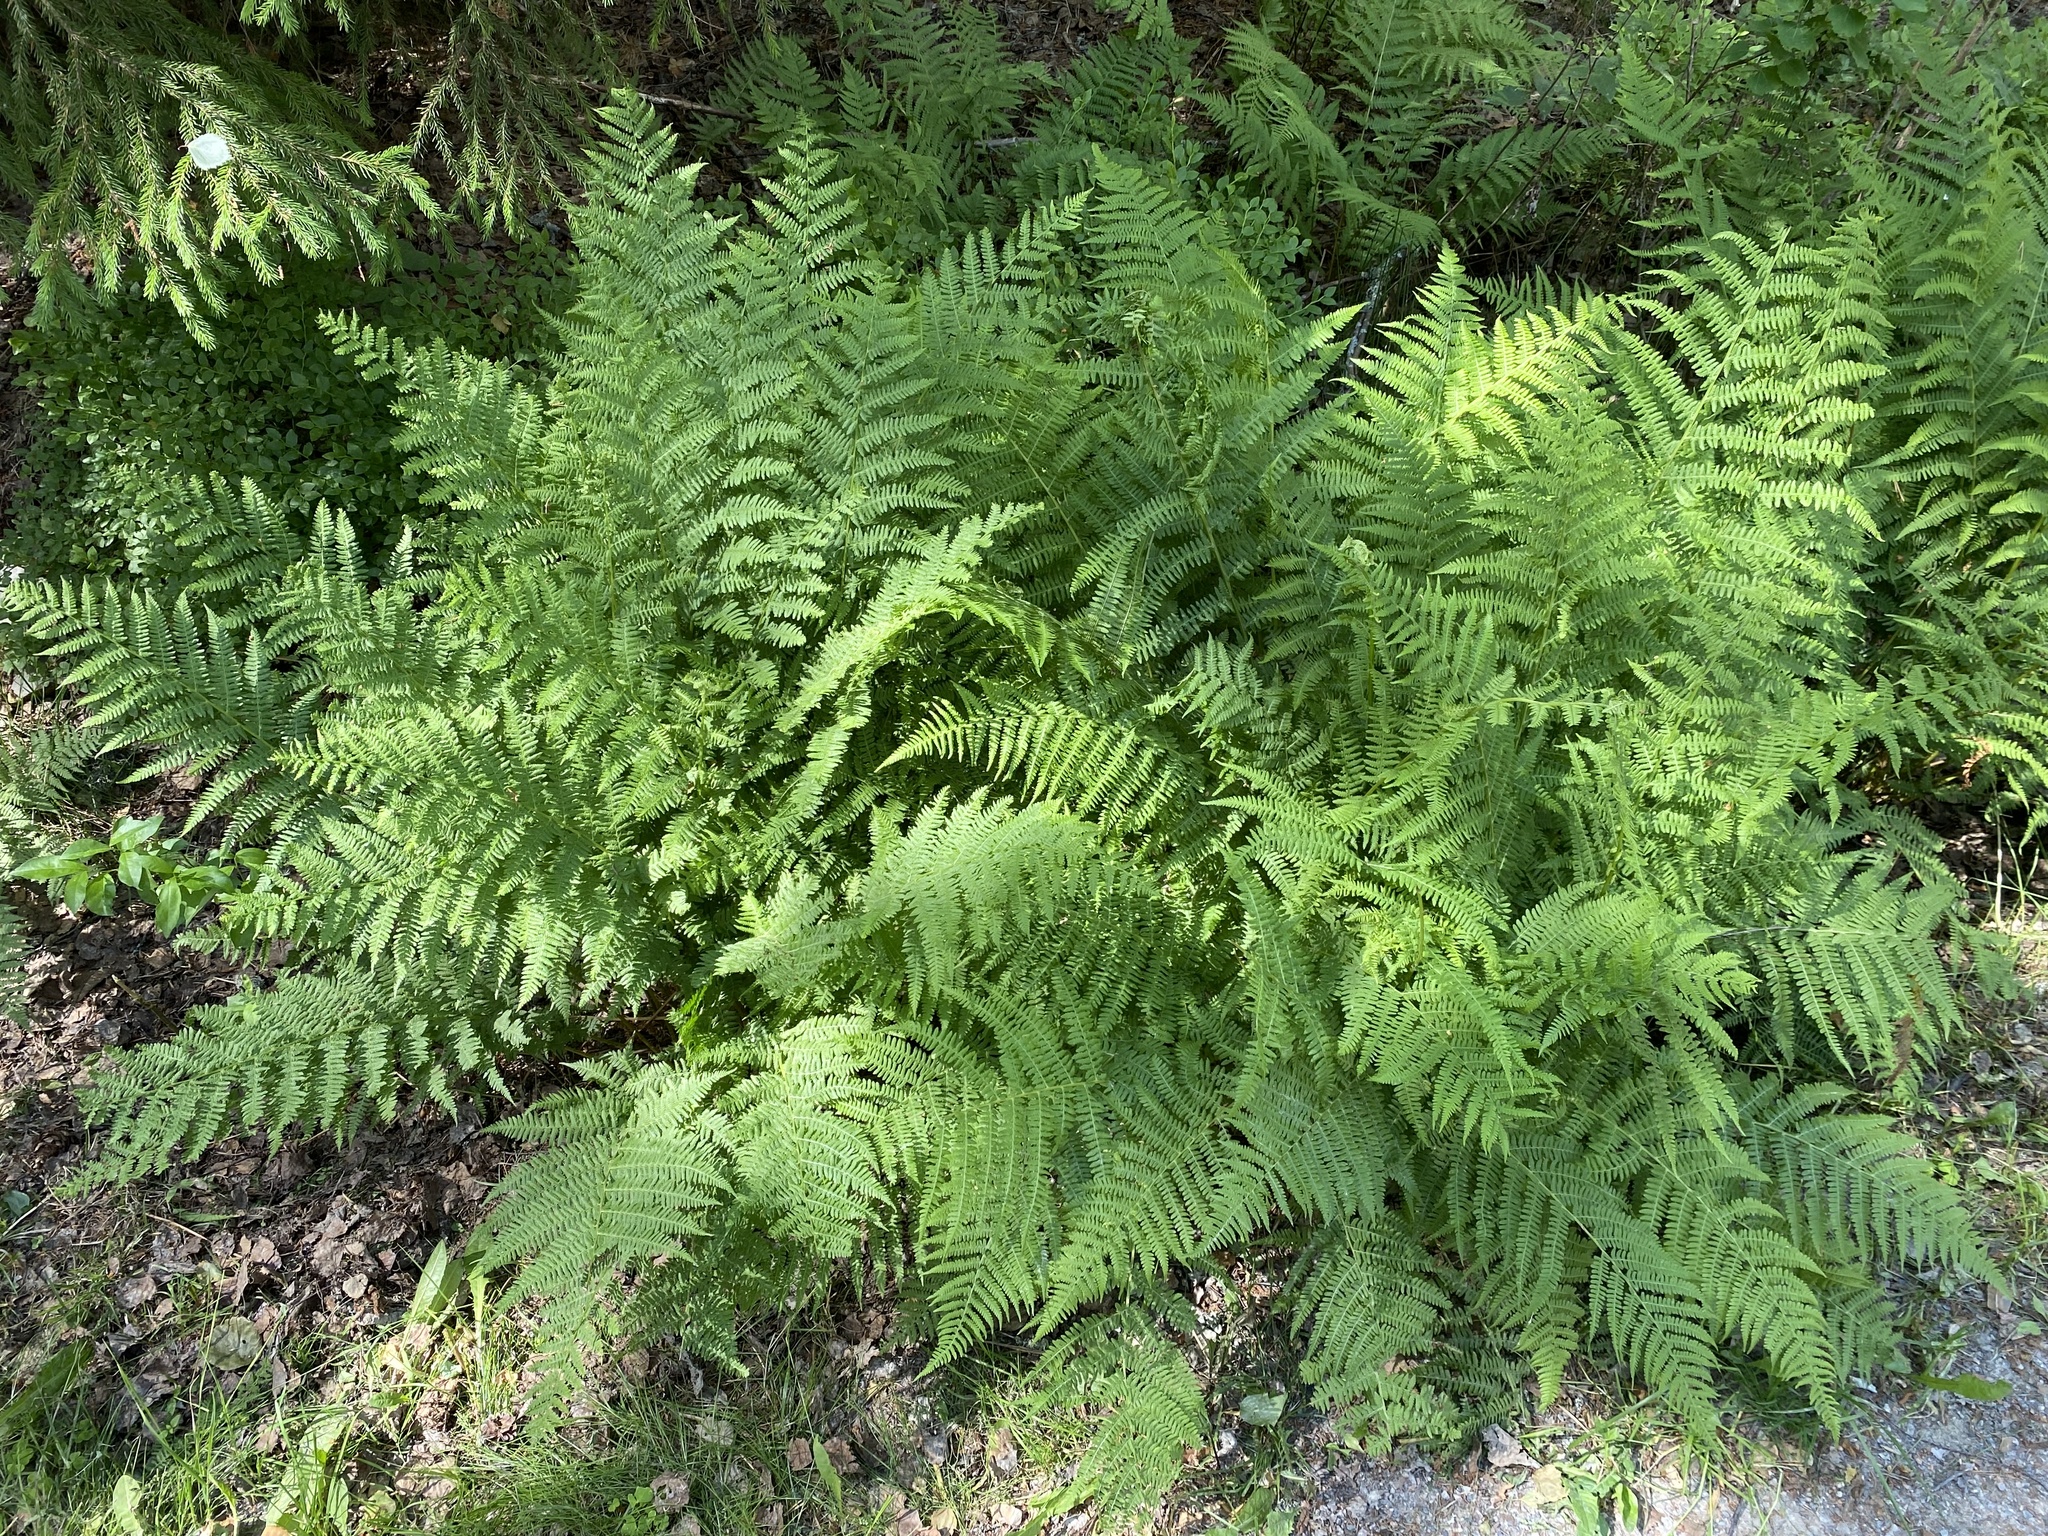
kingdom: Plantae
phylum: Tracheophyta
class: Polypodiopsida
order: Polypodiales
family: Athyriaceae
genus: Athyrium
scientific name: Athyrium filix-femina
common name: Lady fern
